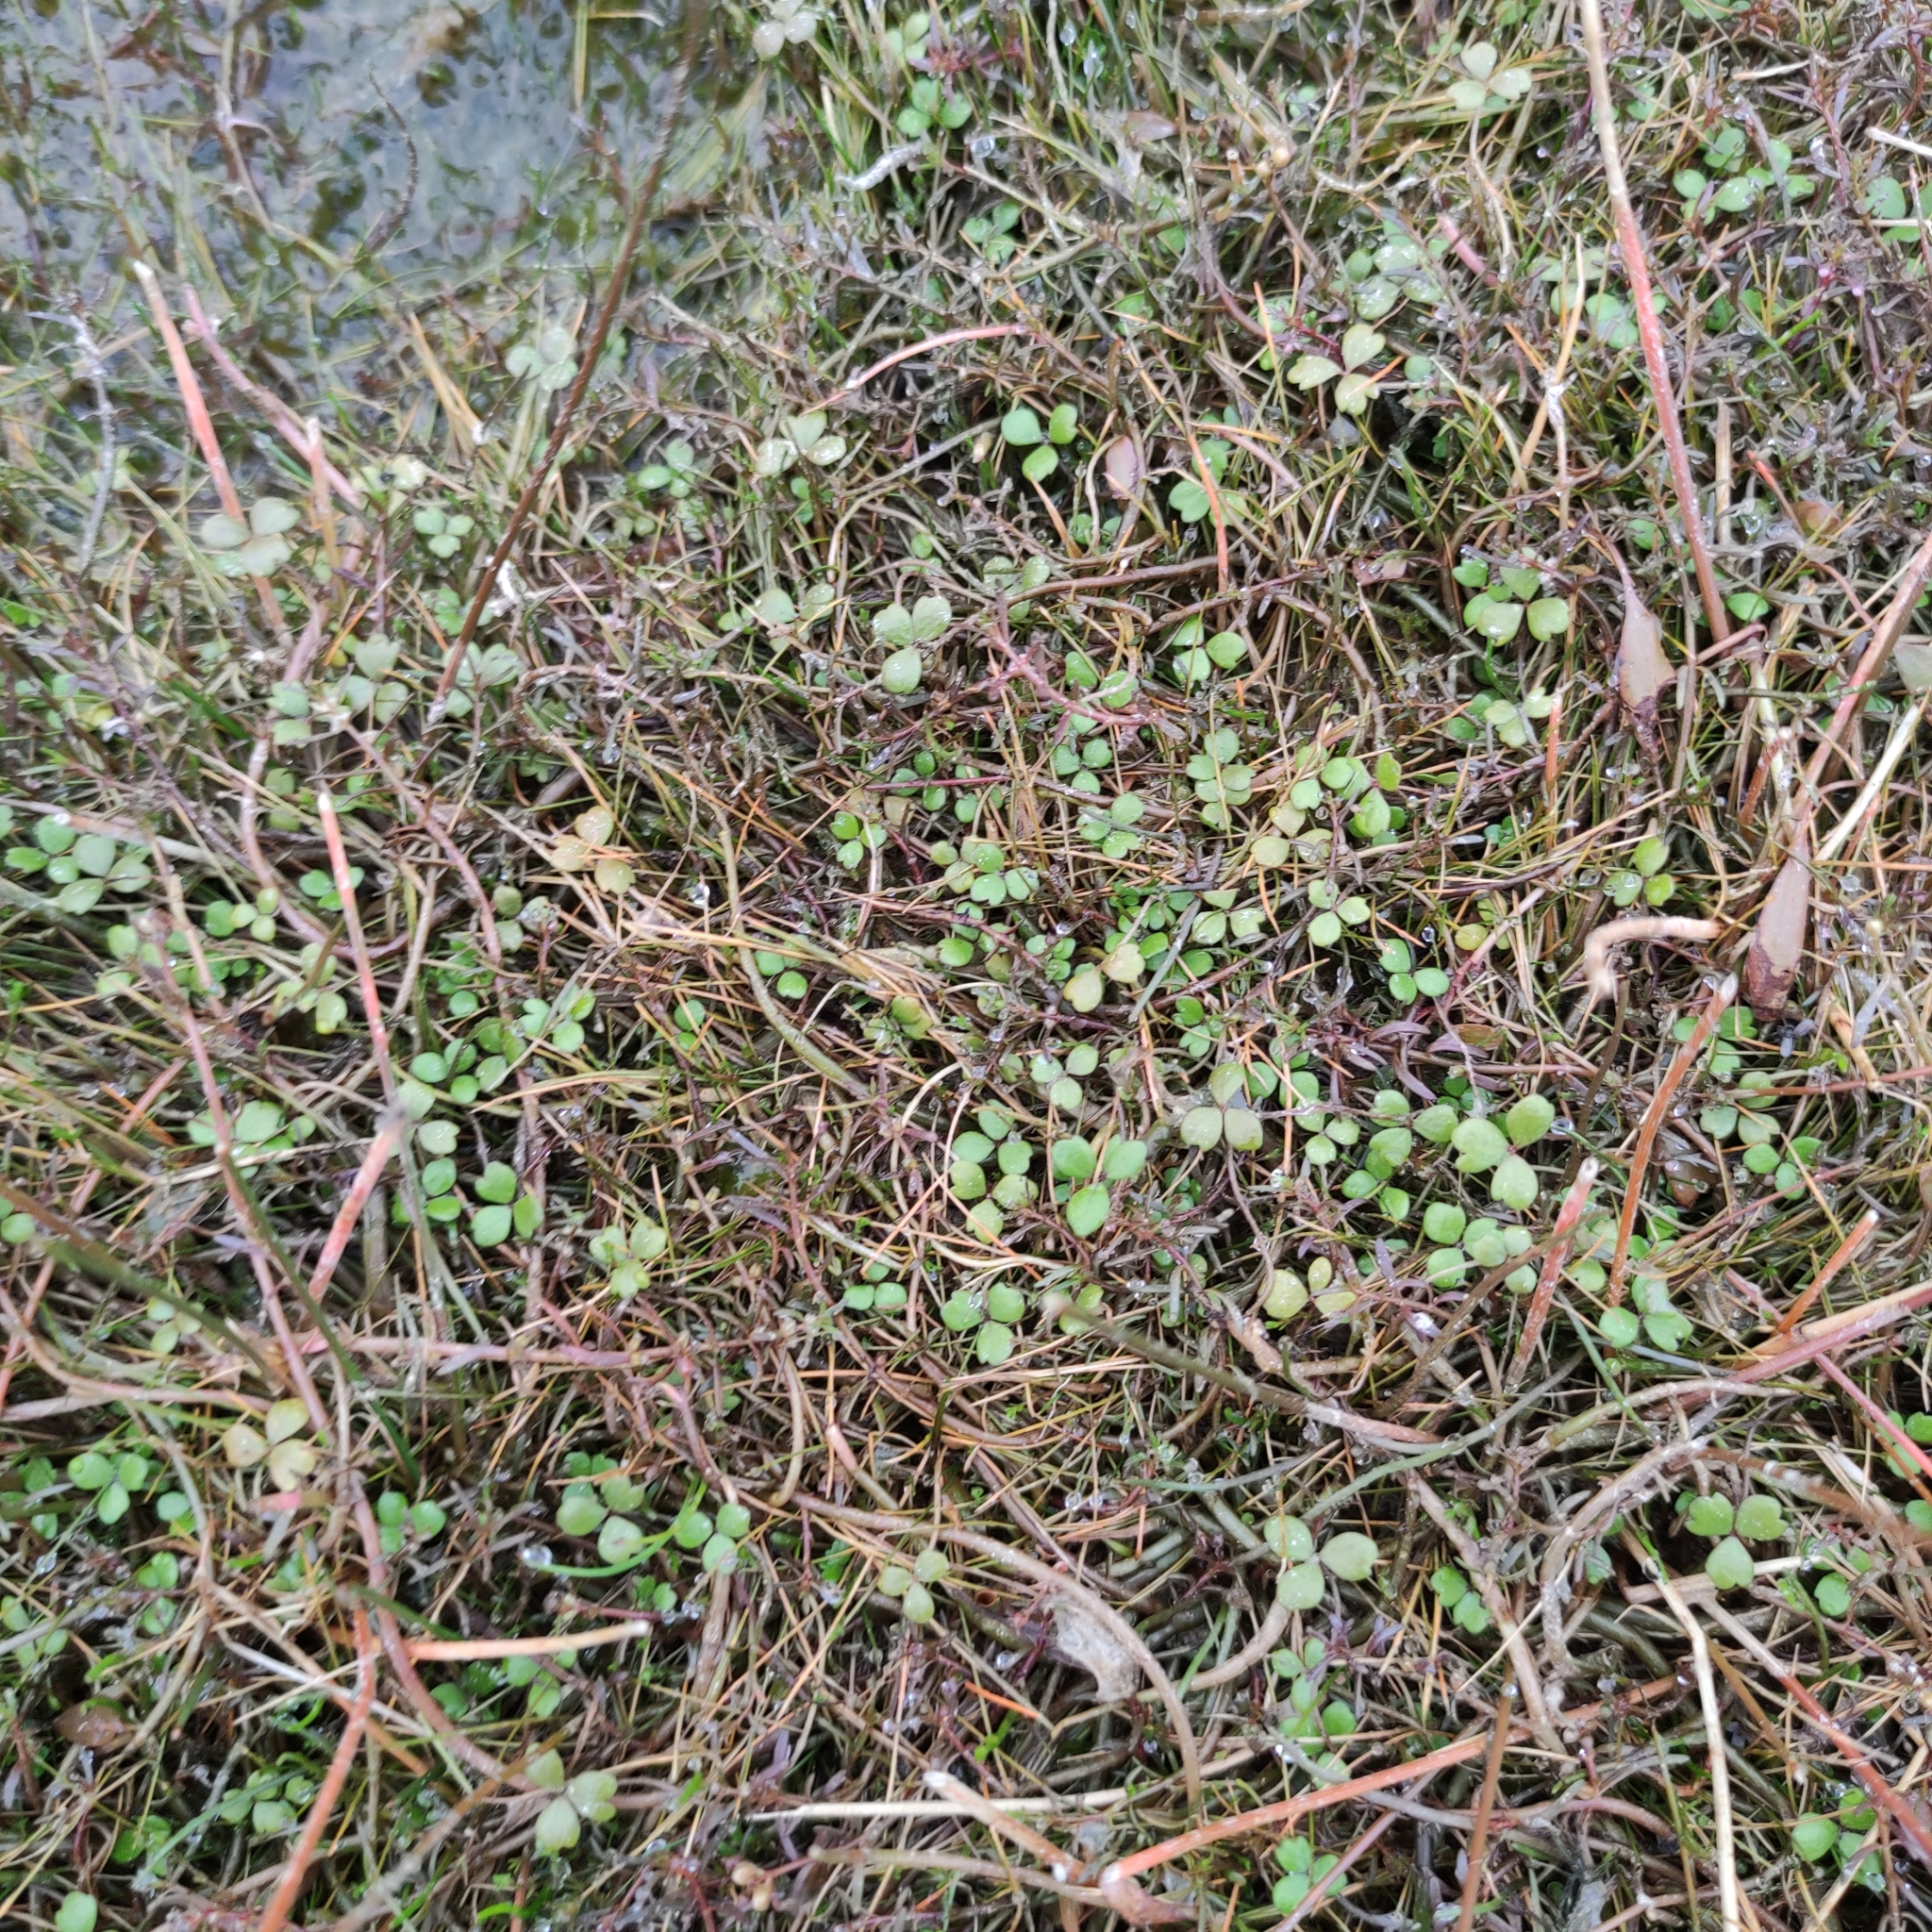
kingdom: Plantae
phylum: Tracheophyta
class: Magnoliopsida
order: Apiales
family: Araliaceae
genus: Hydrocotyle
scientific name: Hydrocotyle sulcata
